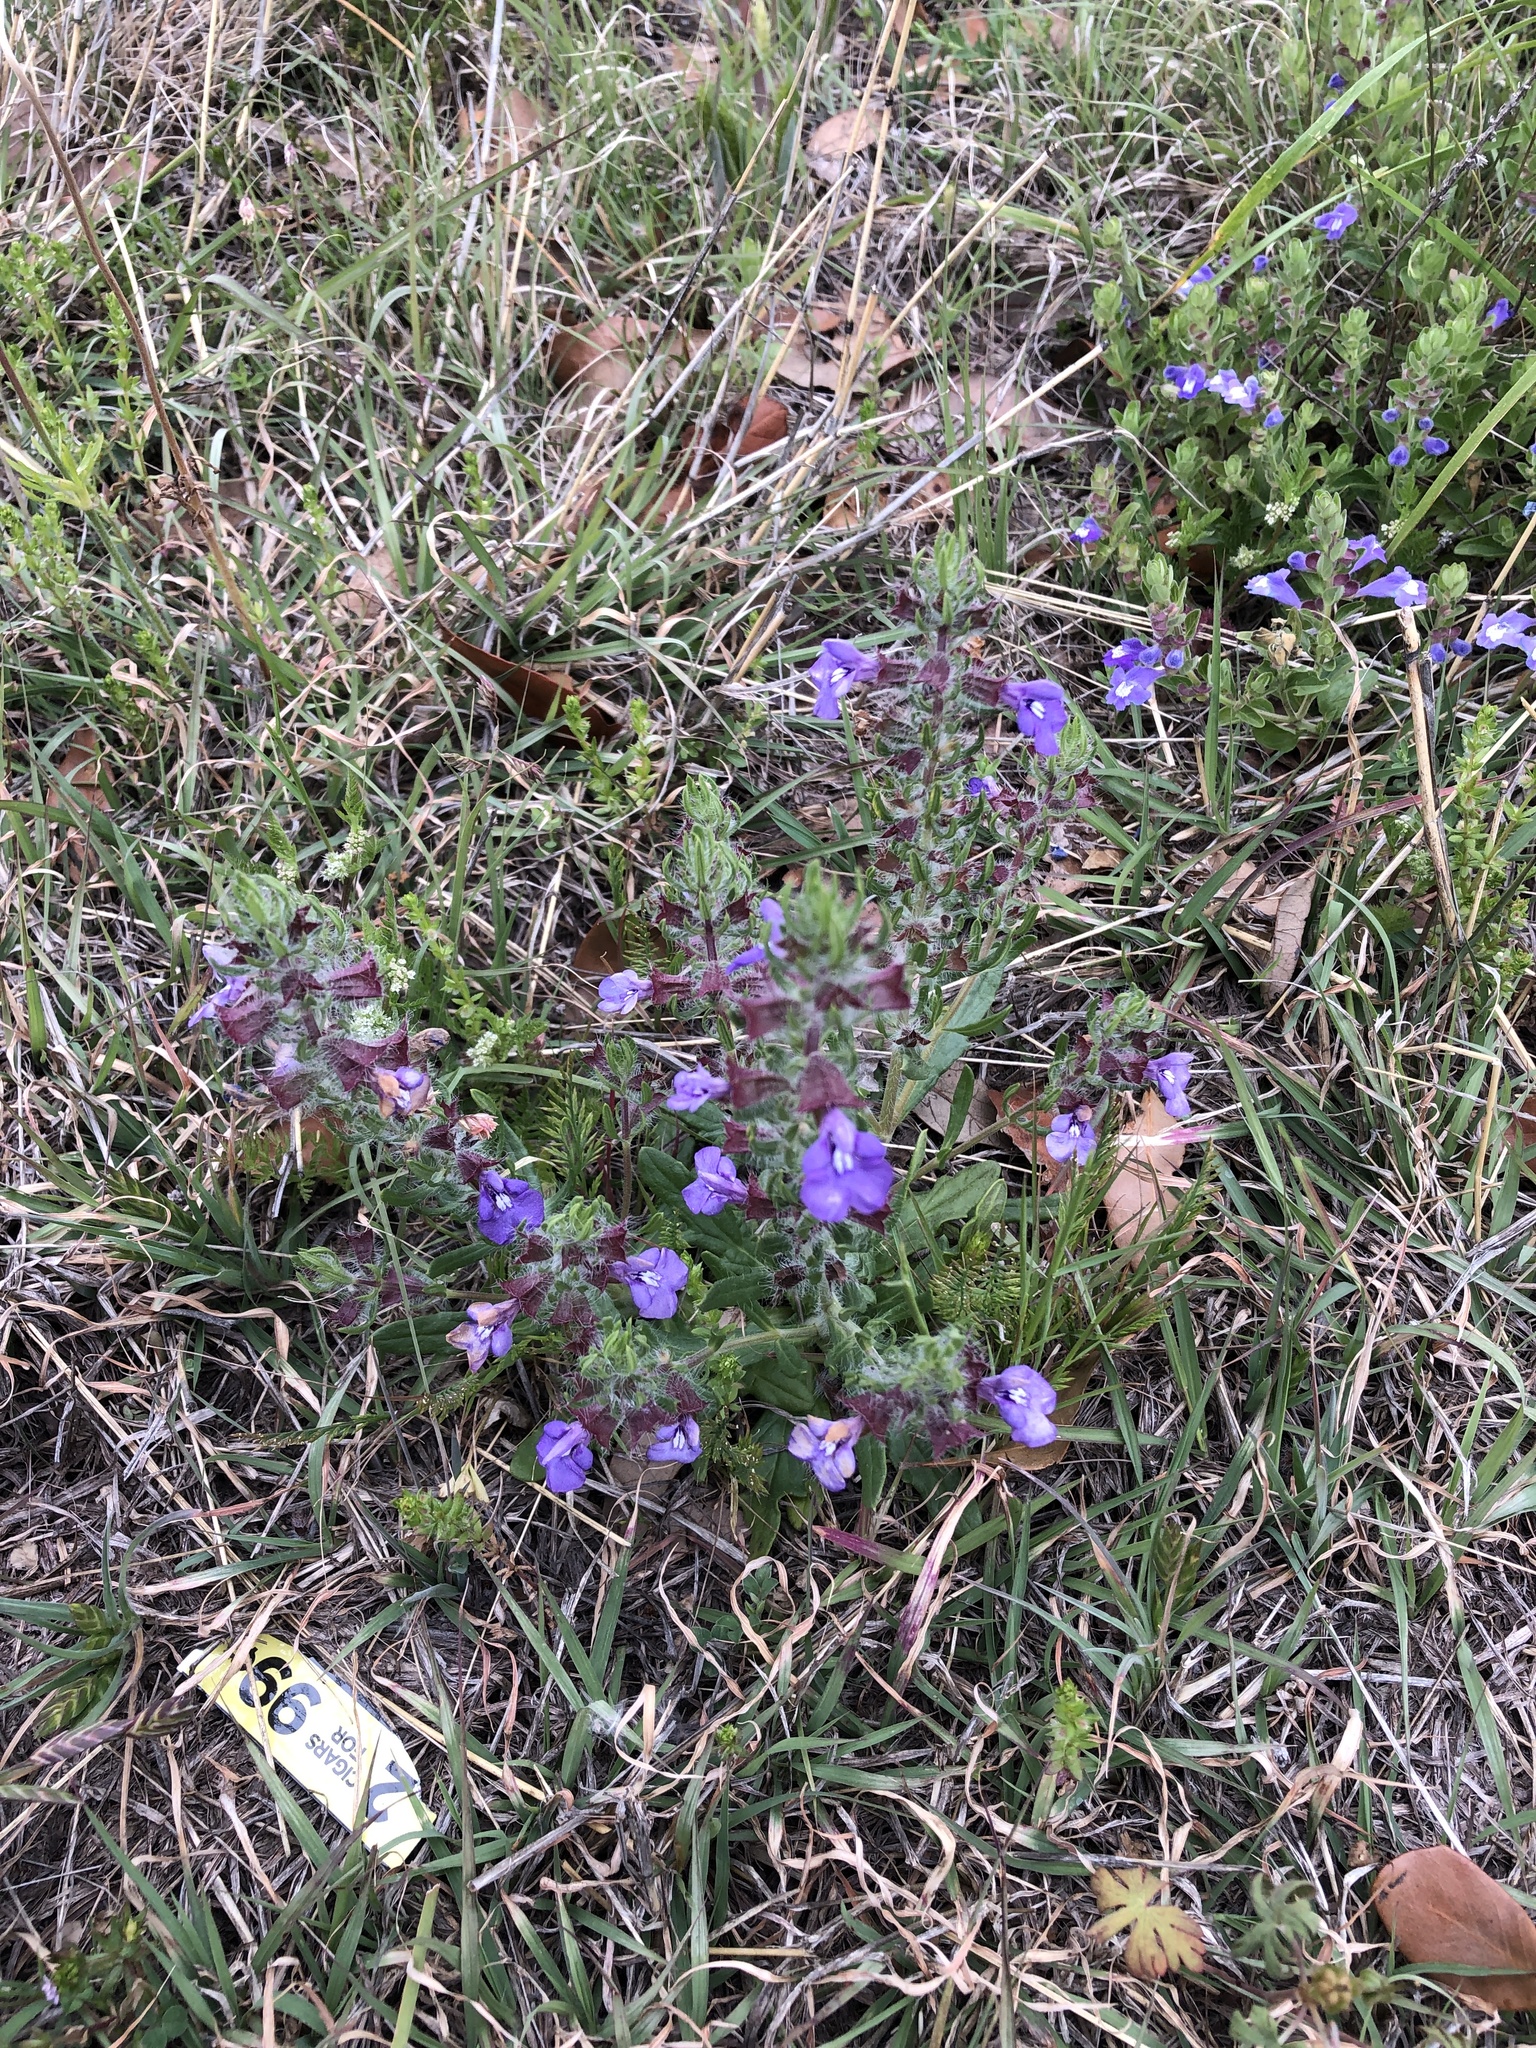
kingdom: Plantae
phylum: Tracheophyta
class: Magnoliopsida
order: Lamiales
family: Lamiaceae
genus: Salvia
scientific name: Salvia texana
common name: Texas sage
